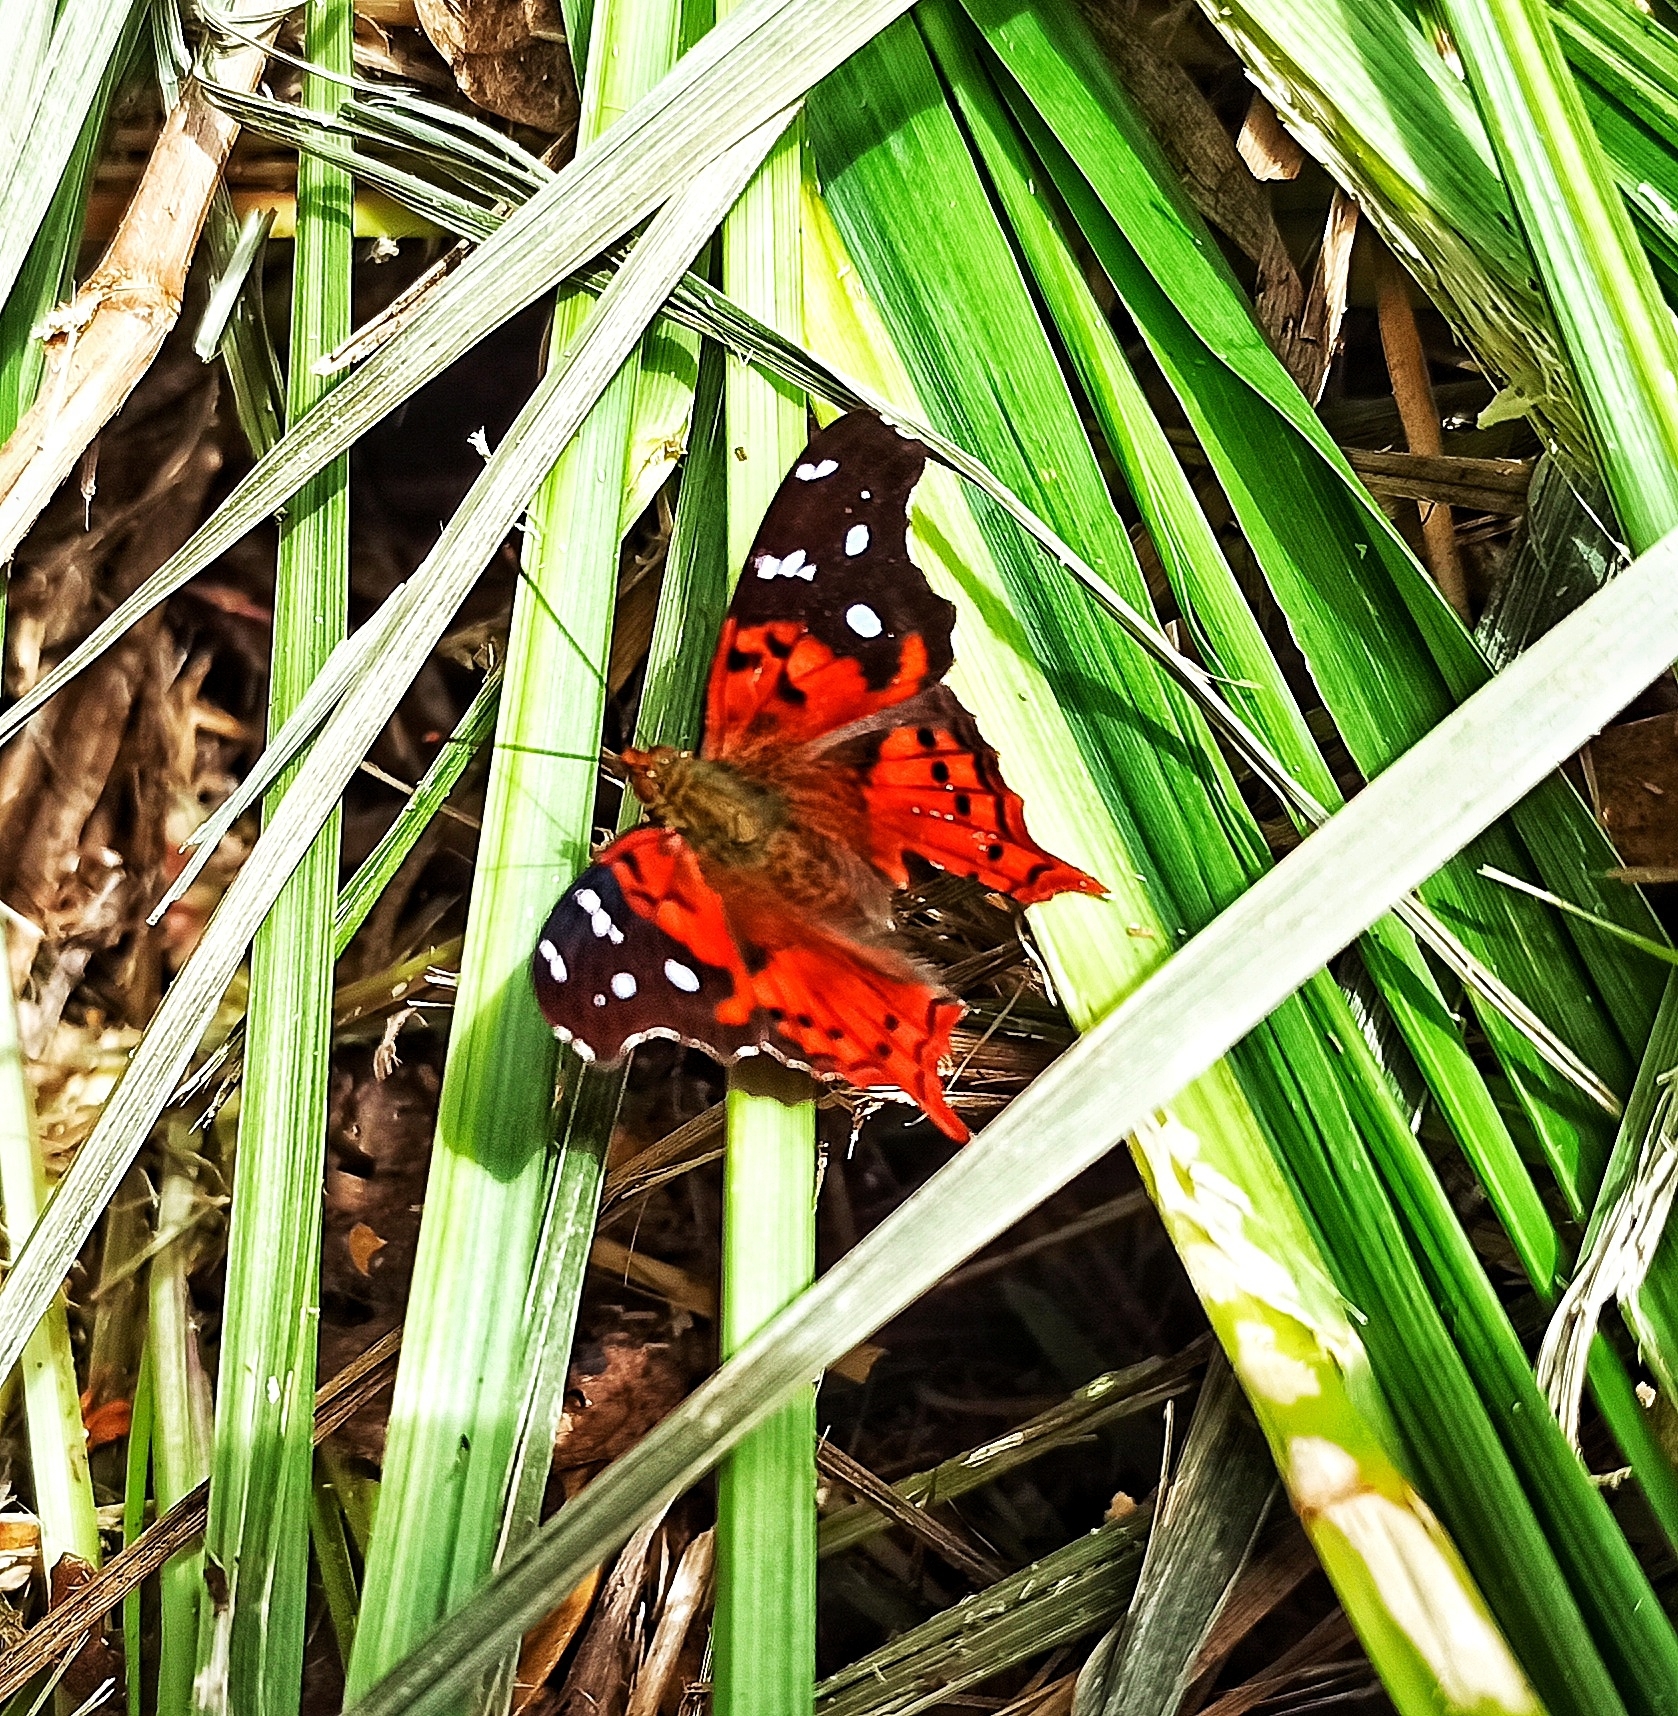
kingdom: Animalia
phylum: Arthropoda
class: Insecta
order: Lepidoptera
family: Nymphalidae
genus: Hypanartia
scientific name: Hypanartia trimaculata
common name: Reddish mapwing
